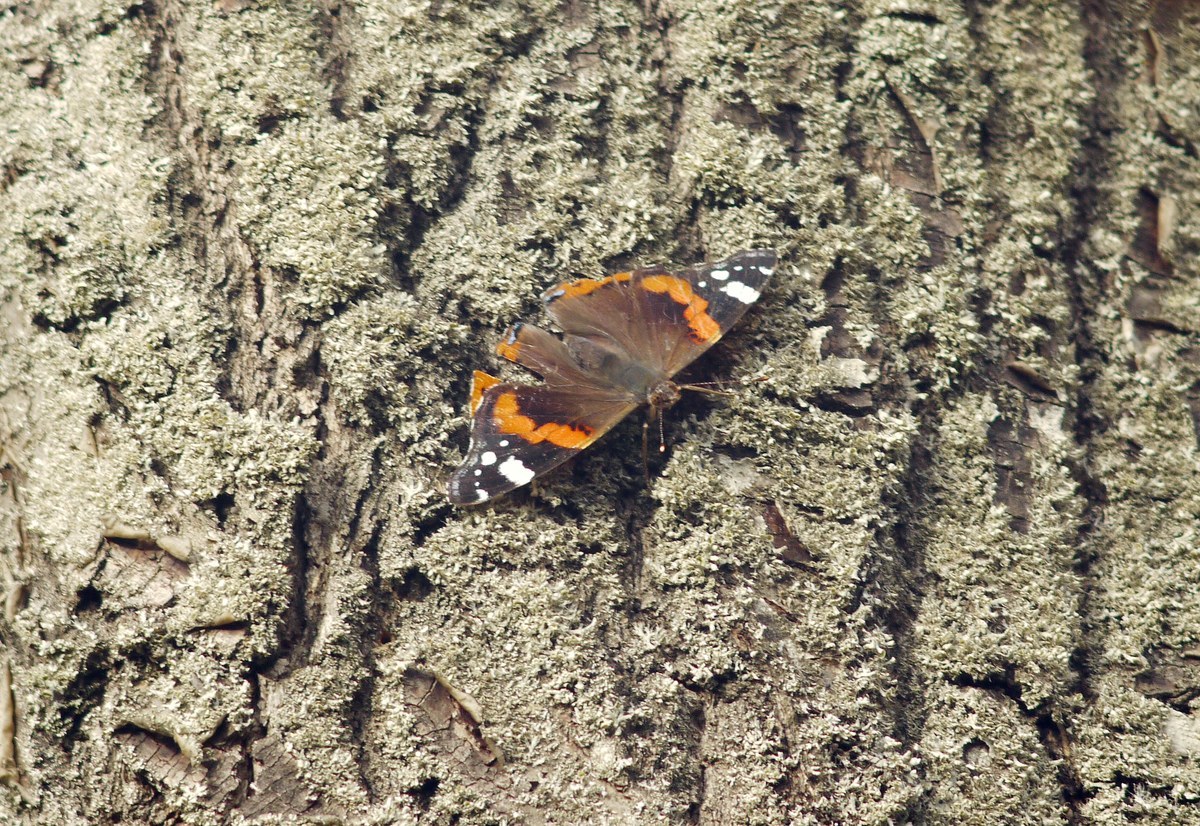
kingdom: Animalia
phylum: Arthropoda
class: Insecta
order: Lepidoptera
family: Nymphalidae
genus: Vanessa
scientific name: Vanessa atalanta
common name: Red admiral
